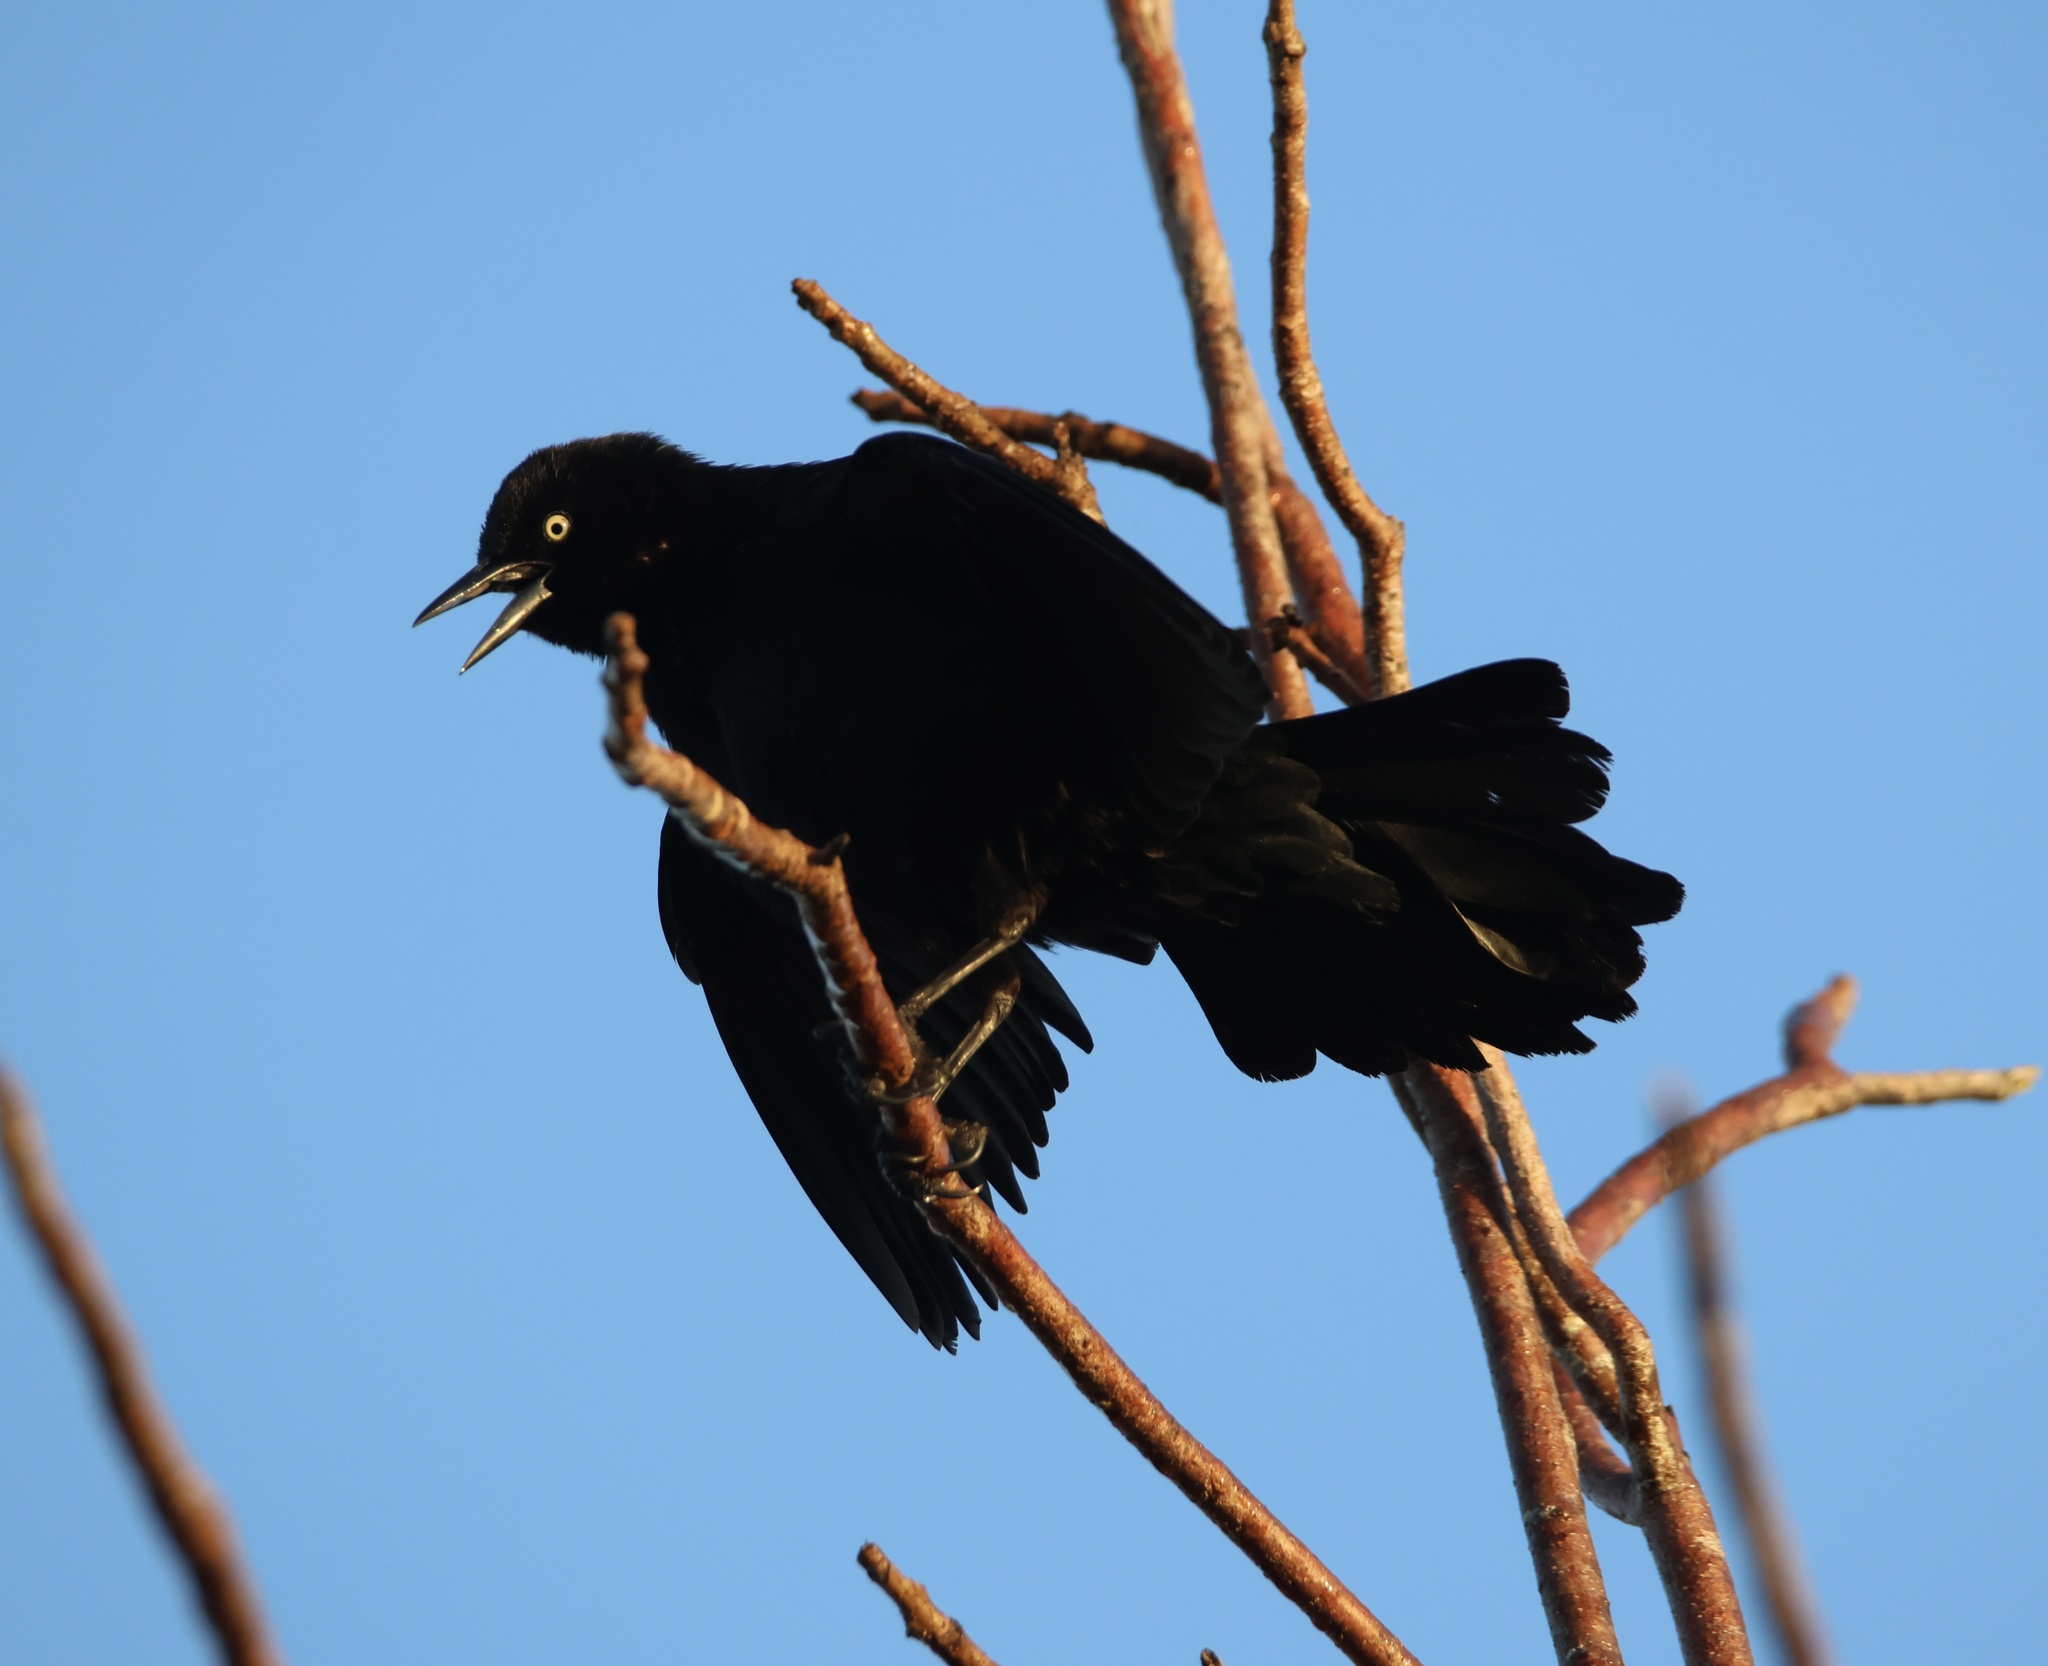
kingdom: Animalia
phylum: Chordata
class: Aves
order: Passeriformes
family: Icteridae
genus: Quiscalus
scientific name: Quiscalus niger
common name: Greater antillean grackle
